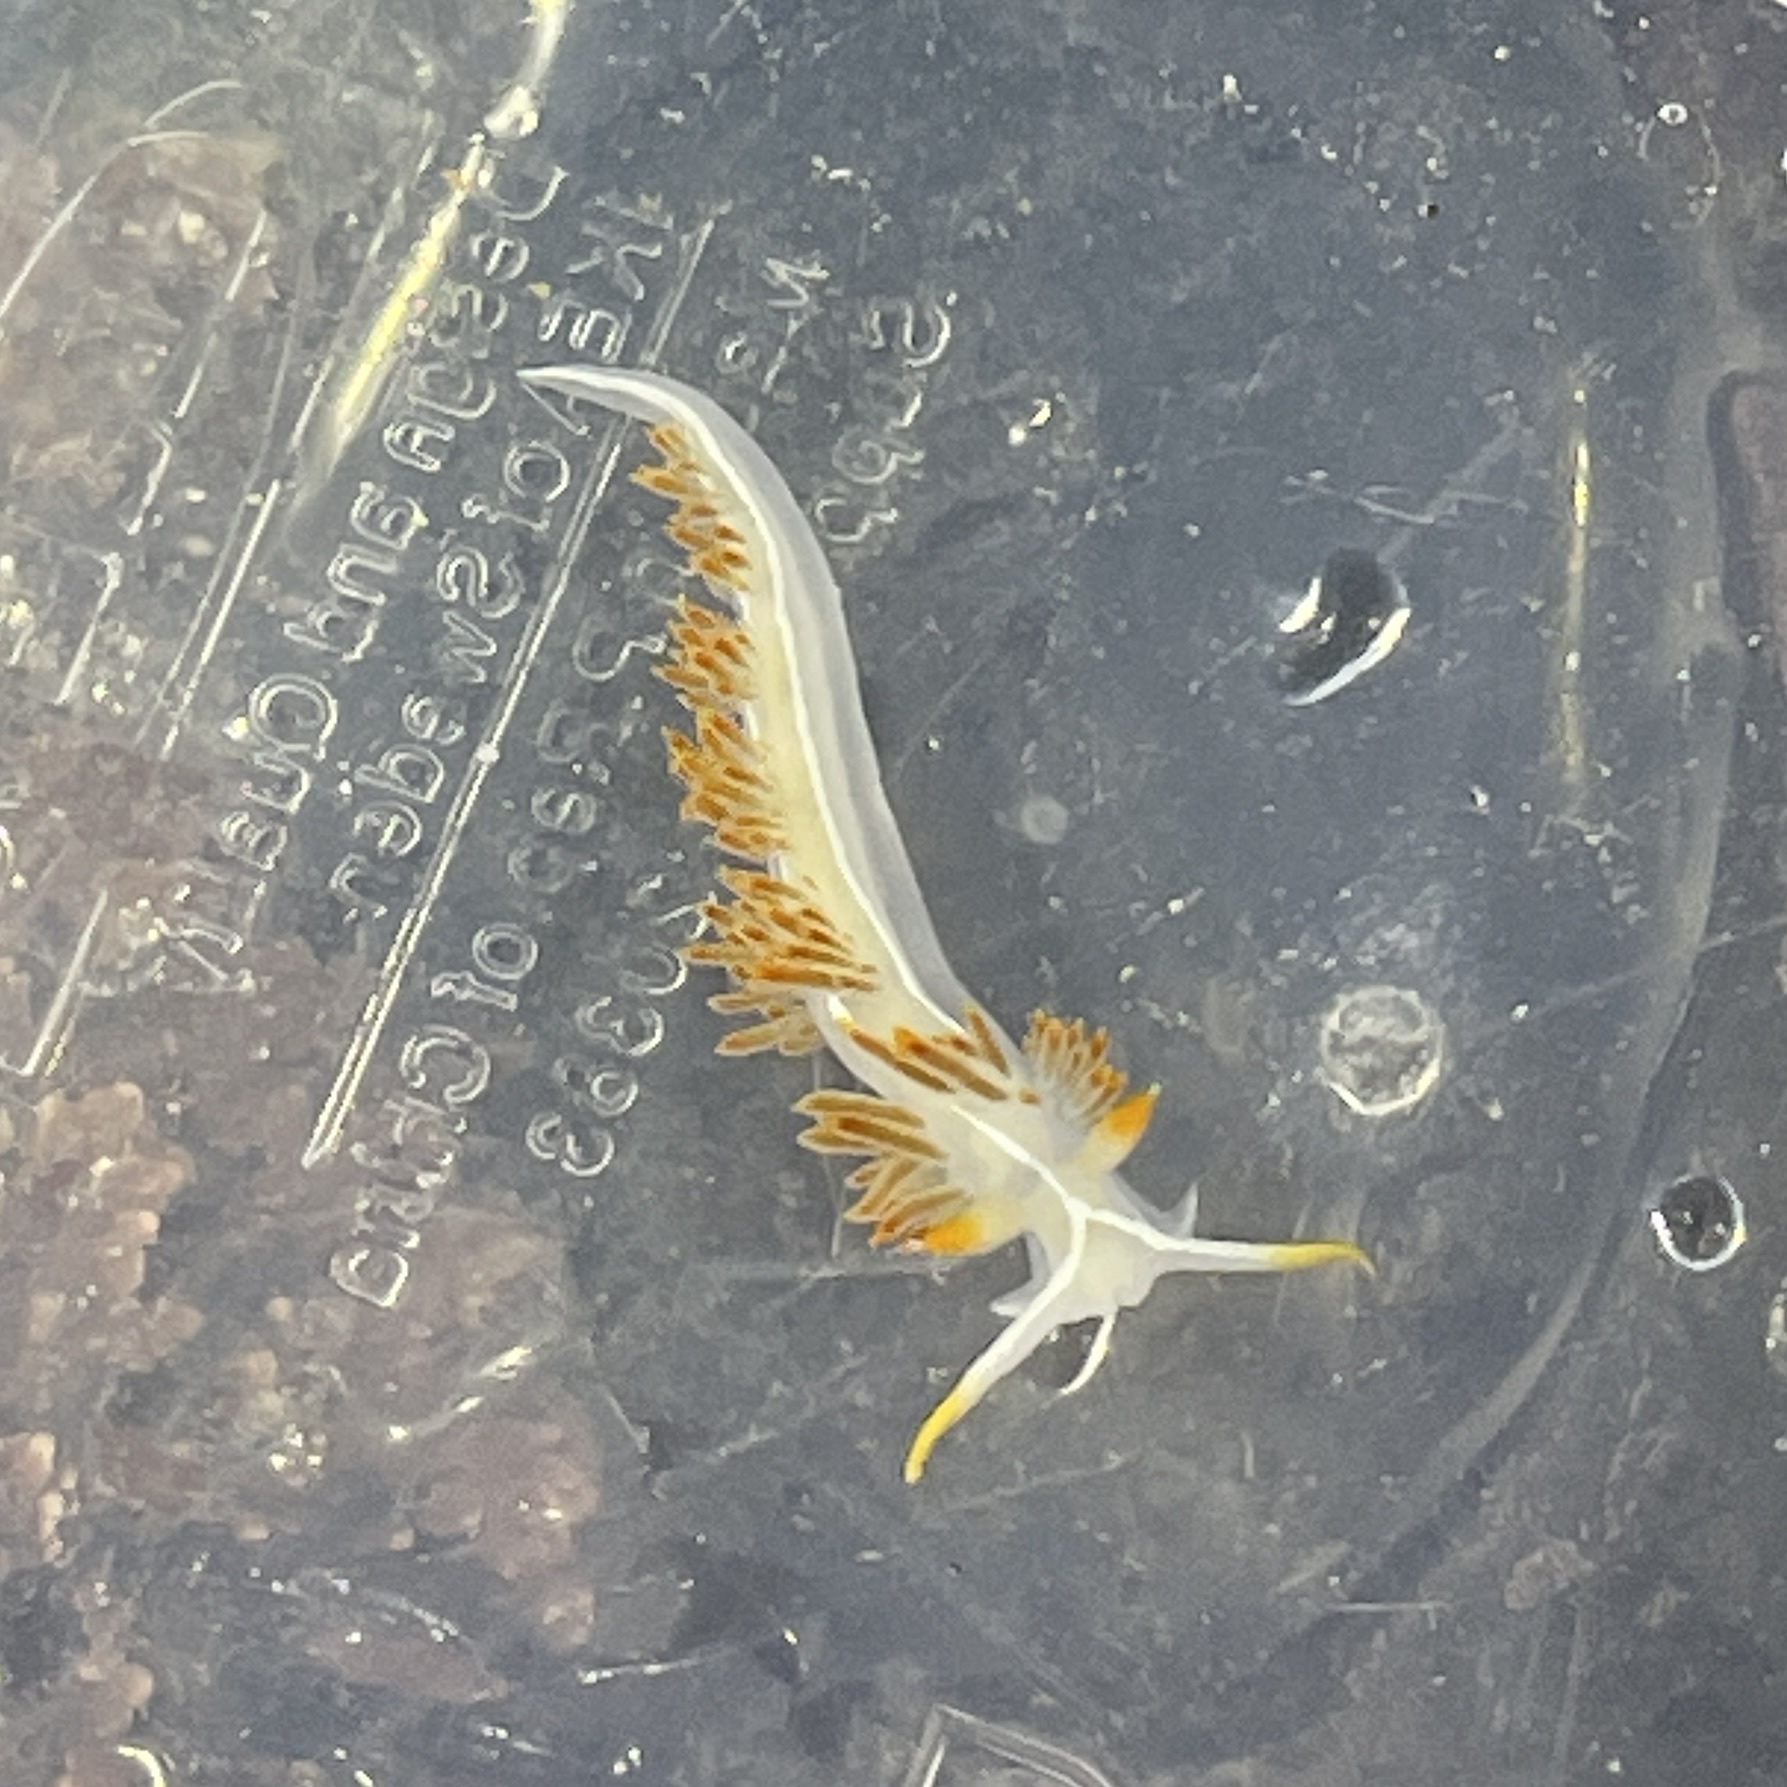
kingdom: Animalia
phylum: Mollusca
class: Gastropoda
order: Nudibranchia
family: Coryphellidae
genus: Coryphella
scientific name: Coryphella trilineata
